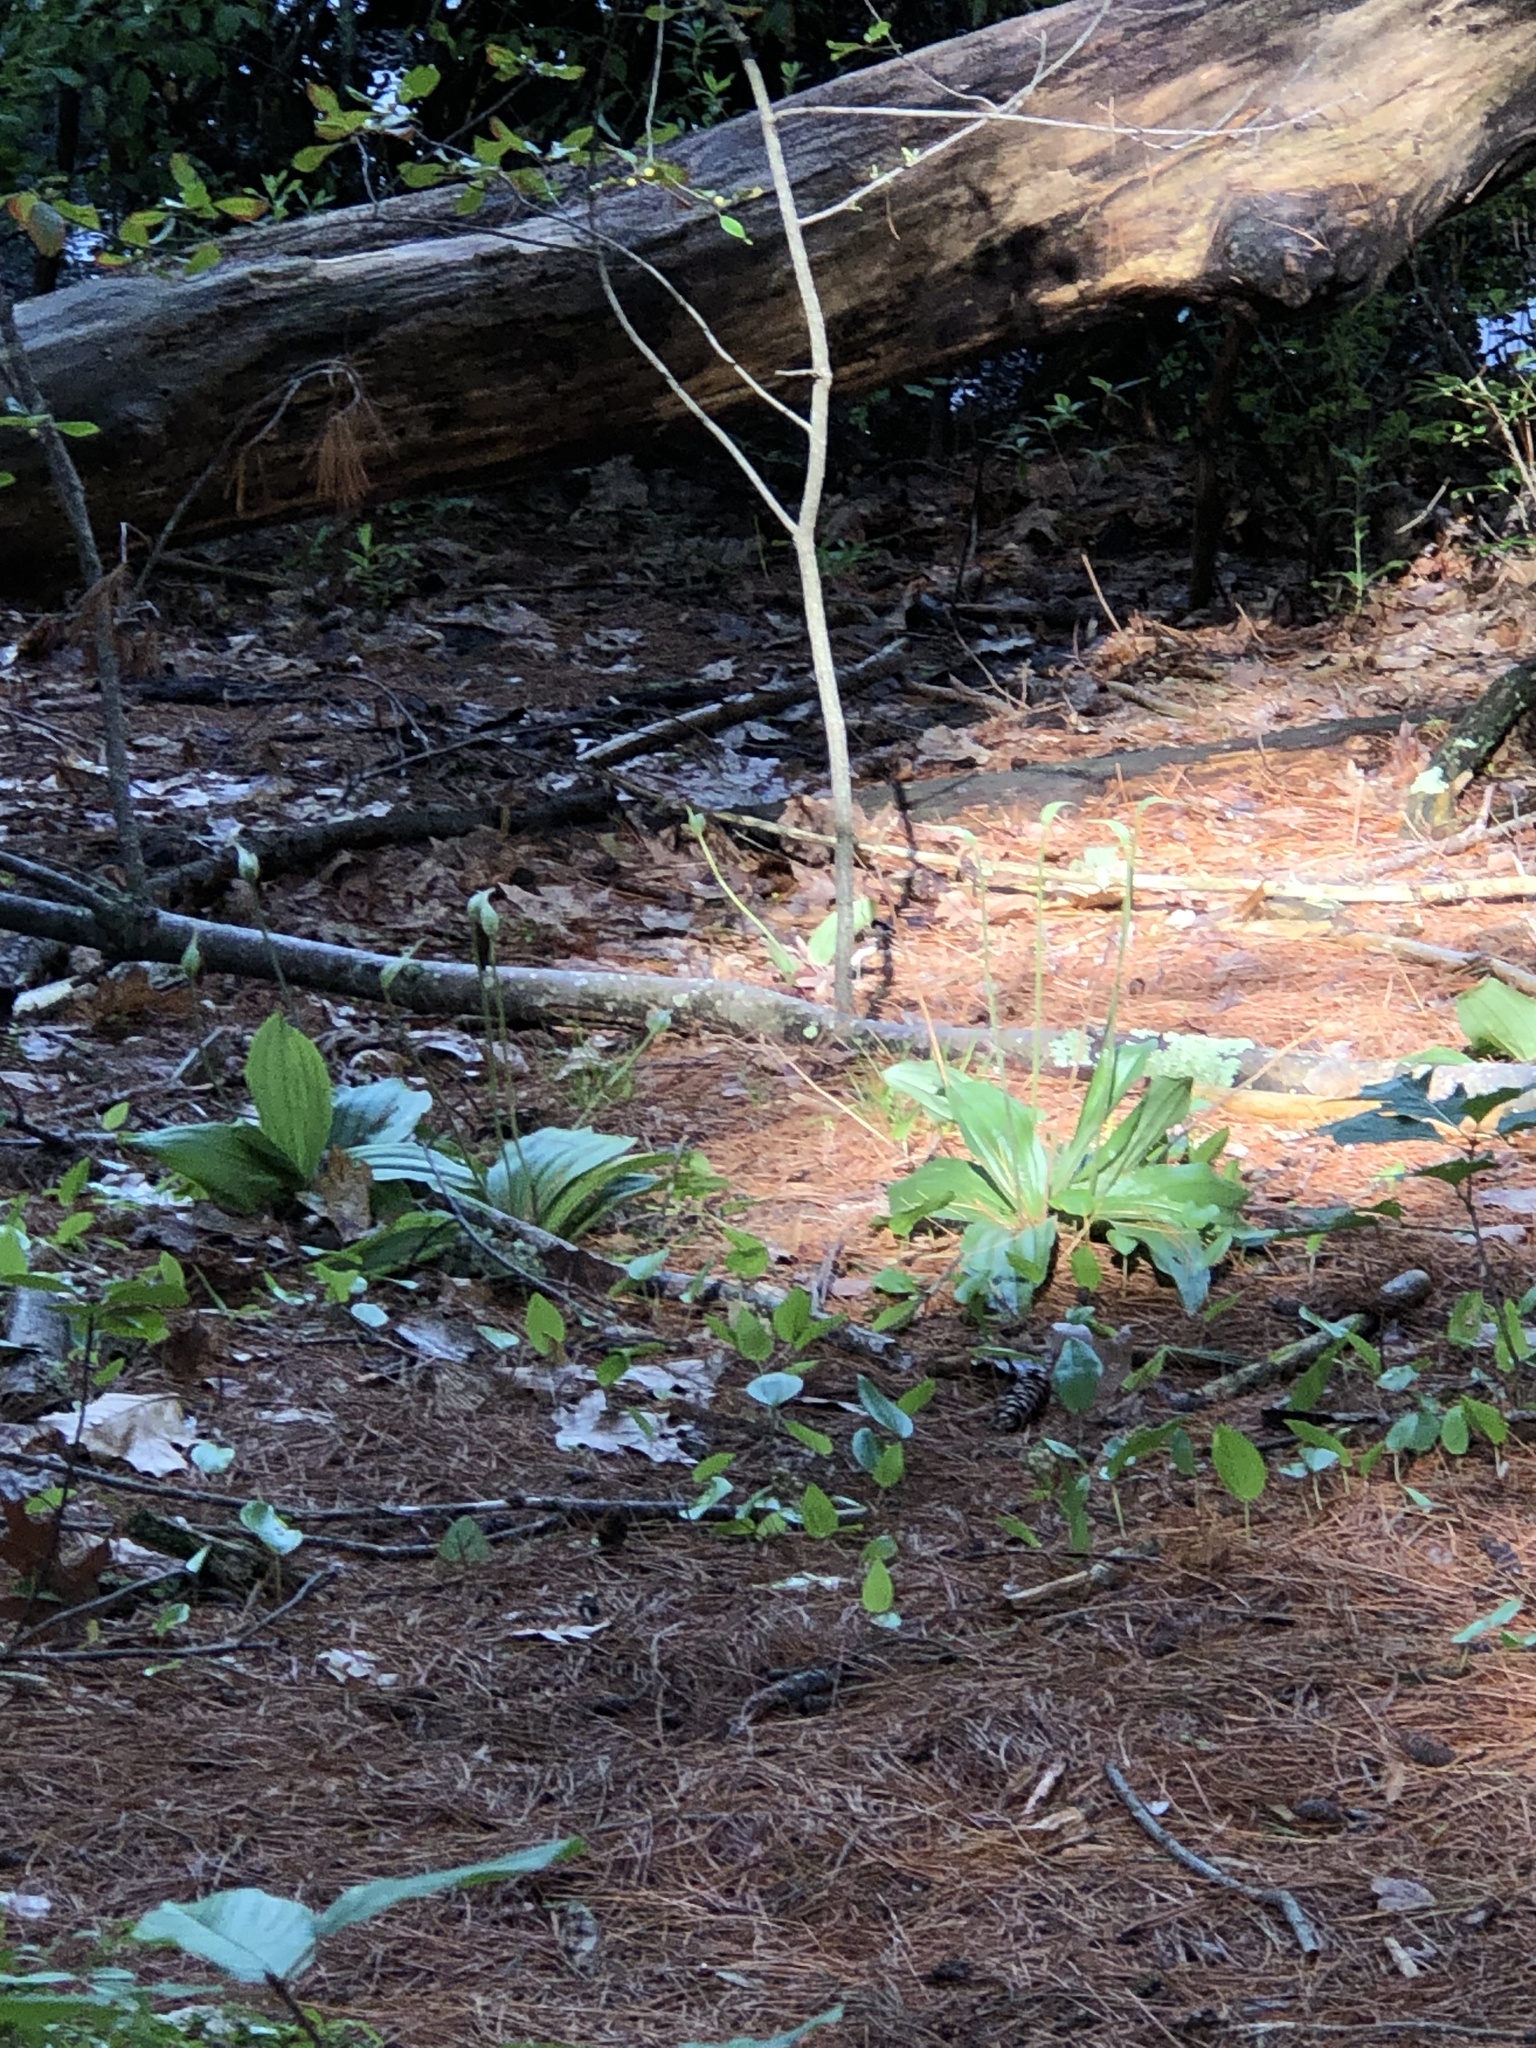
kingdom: Plantae
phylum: Tracheophyta
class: Liliopsida
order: Asparagales
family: Orchidaceae
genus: Cypripedium
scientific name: Cypripedium acaule
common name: Pink lady's-slipper
